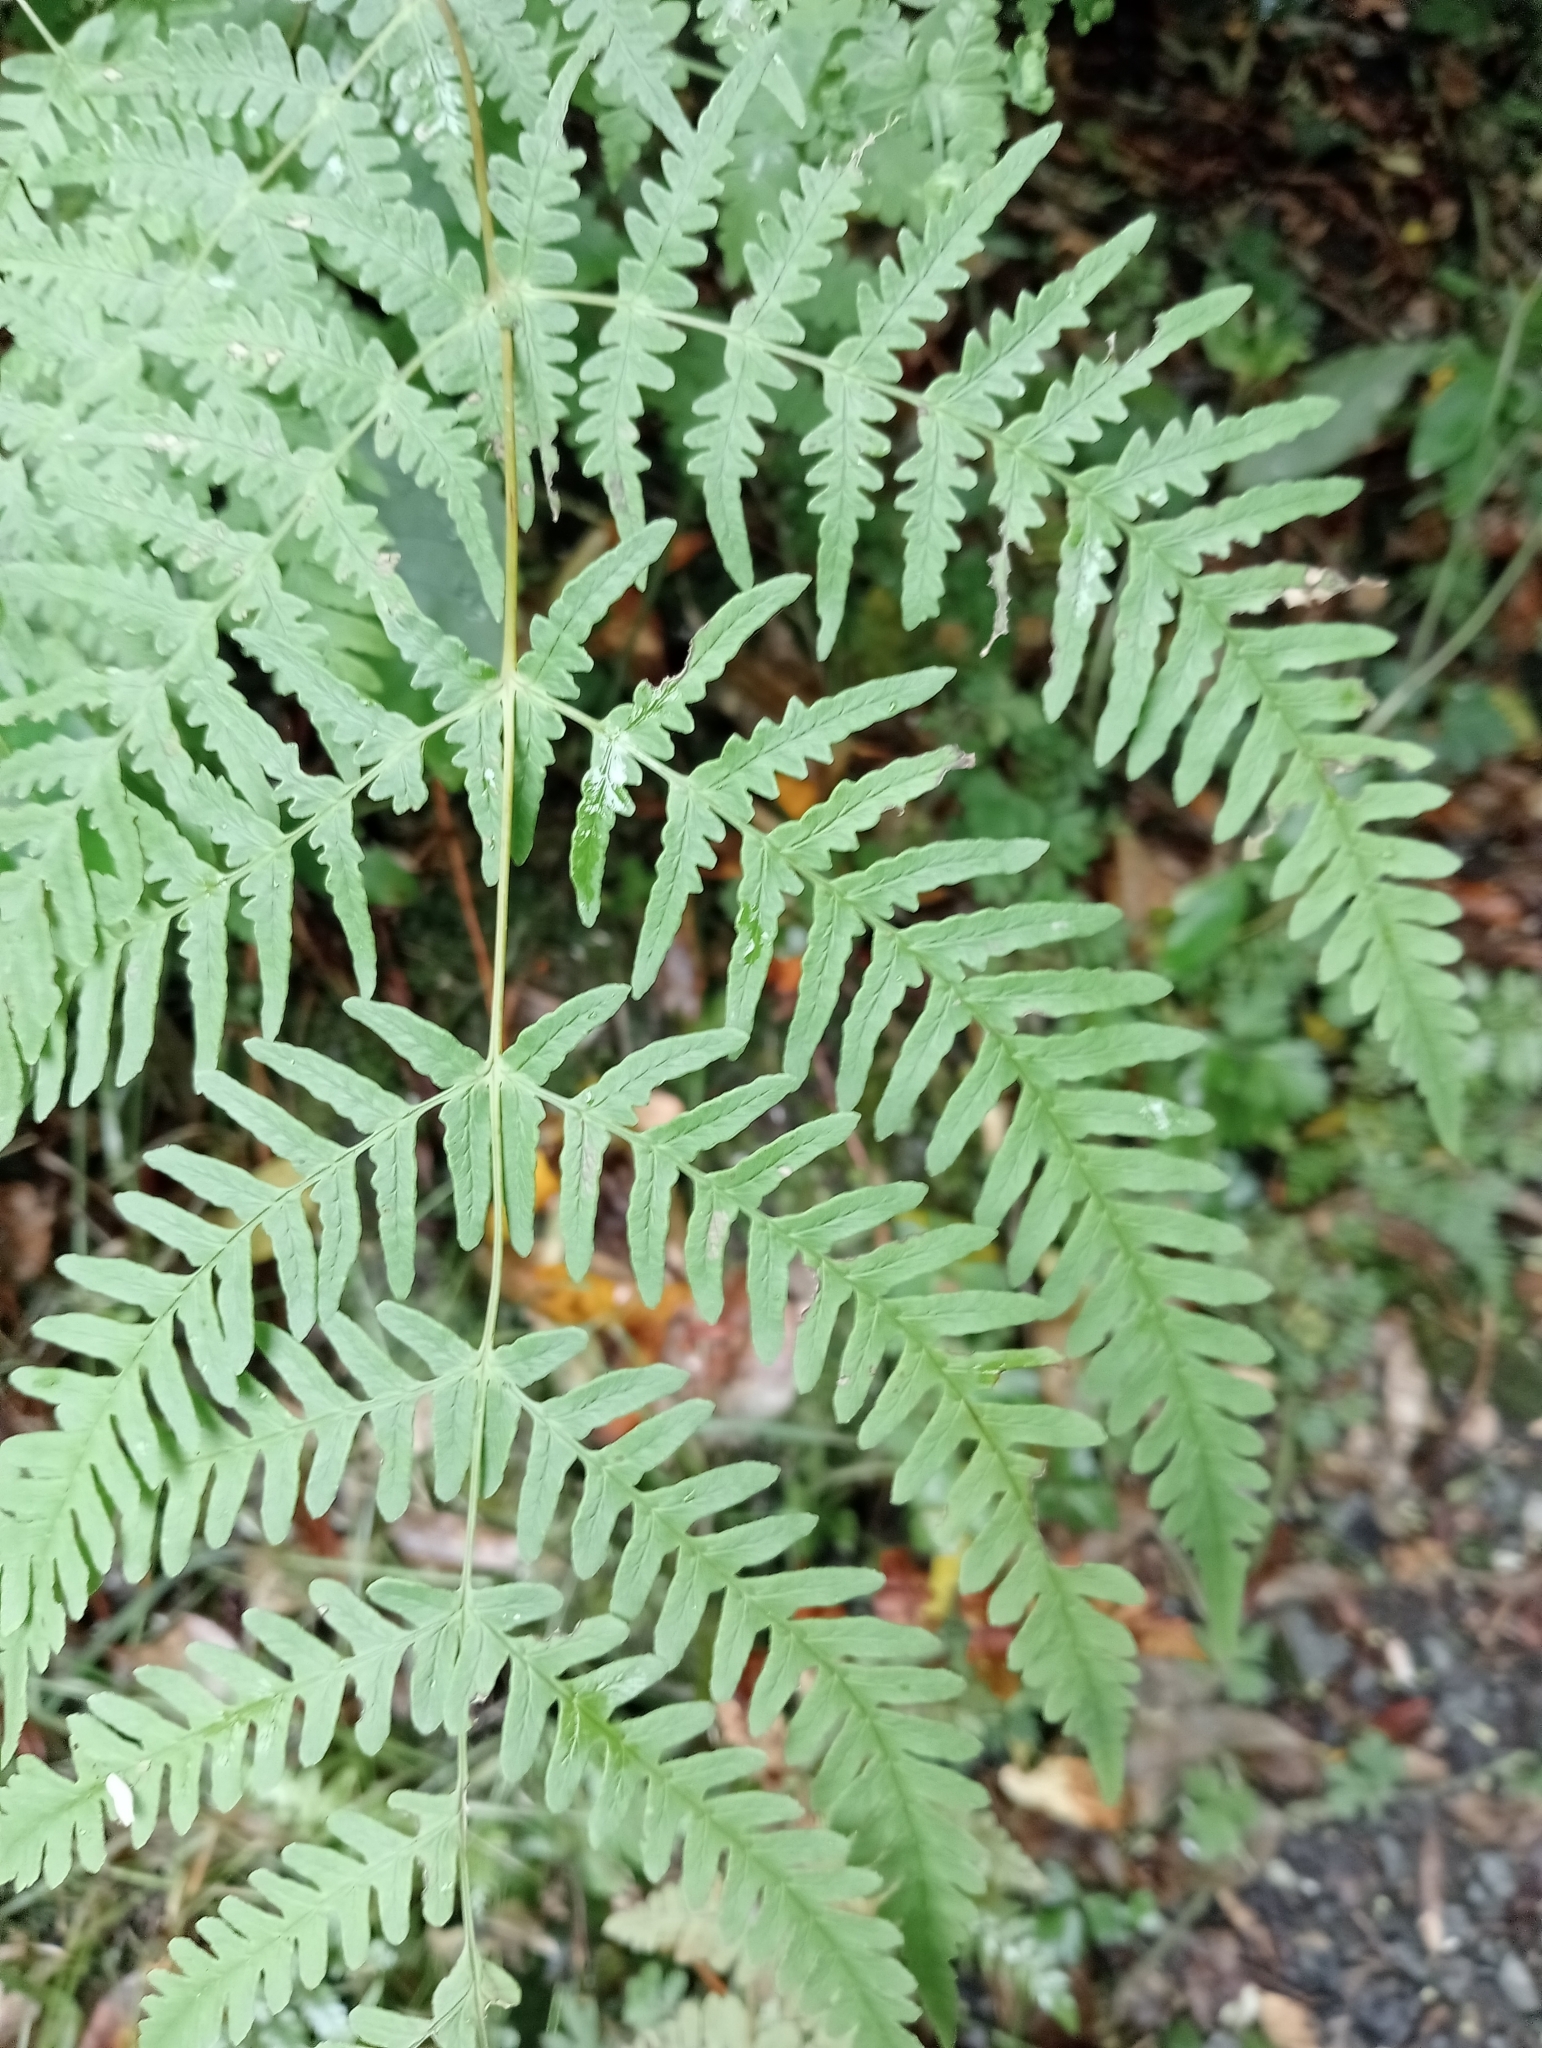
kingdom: Plantae
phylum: Tracheophyta
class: Polypodiopsida
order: Polypodiales
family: Dennstaedtiaceae
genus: Histiopteris
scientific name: Histiopteris incisa
